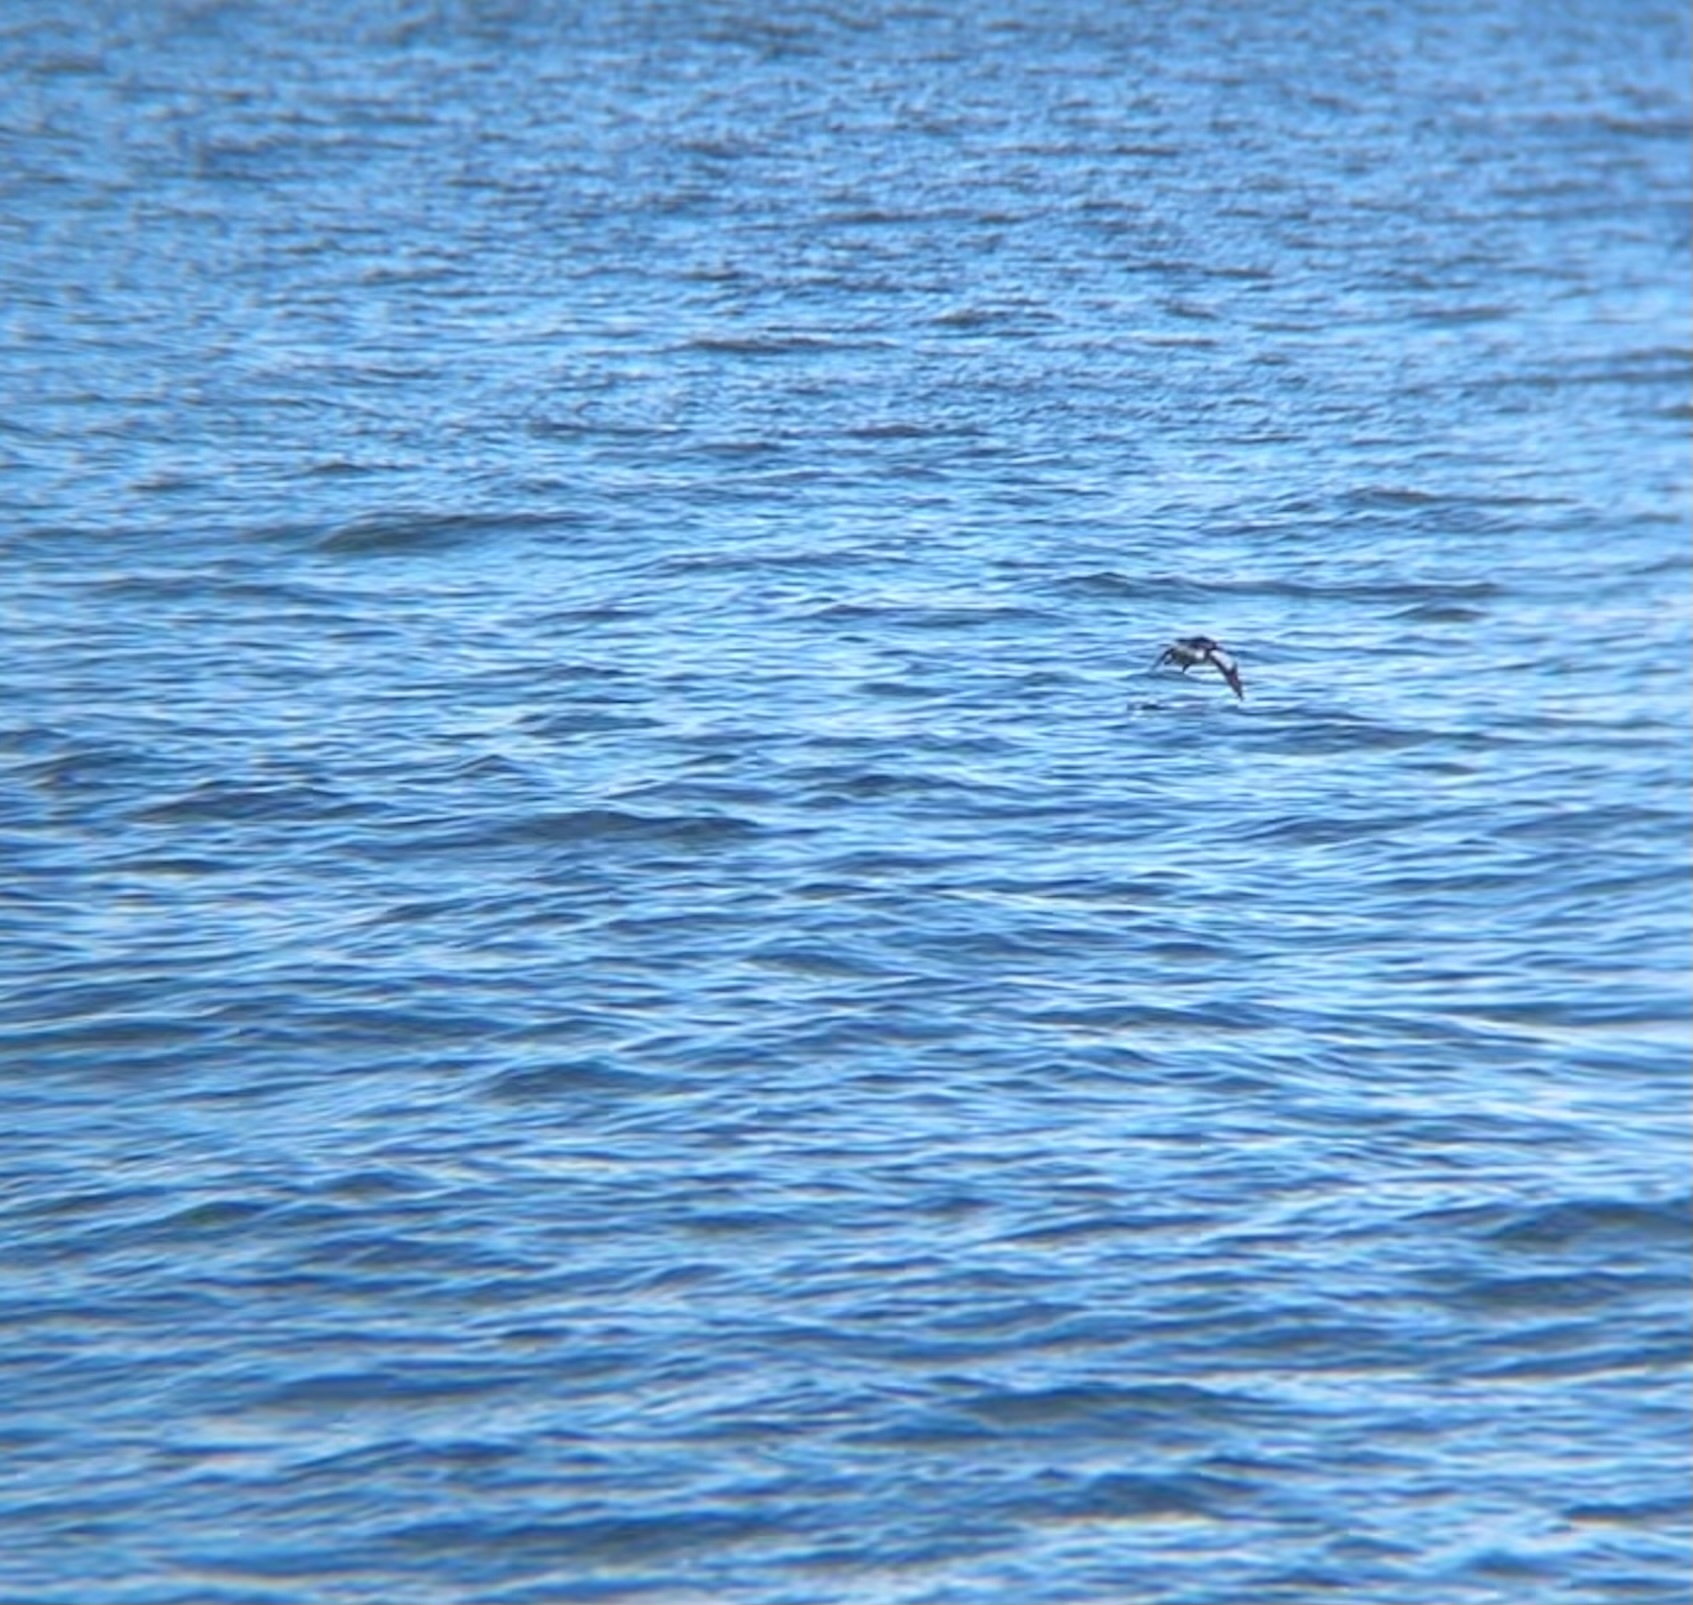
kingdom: Animalia
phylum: Chordata
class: Aves
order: Charadriiformes
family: Alcidae
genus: Cepphus
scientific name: Cepphus grylle
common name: Black guillemot
